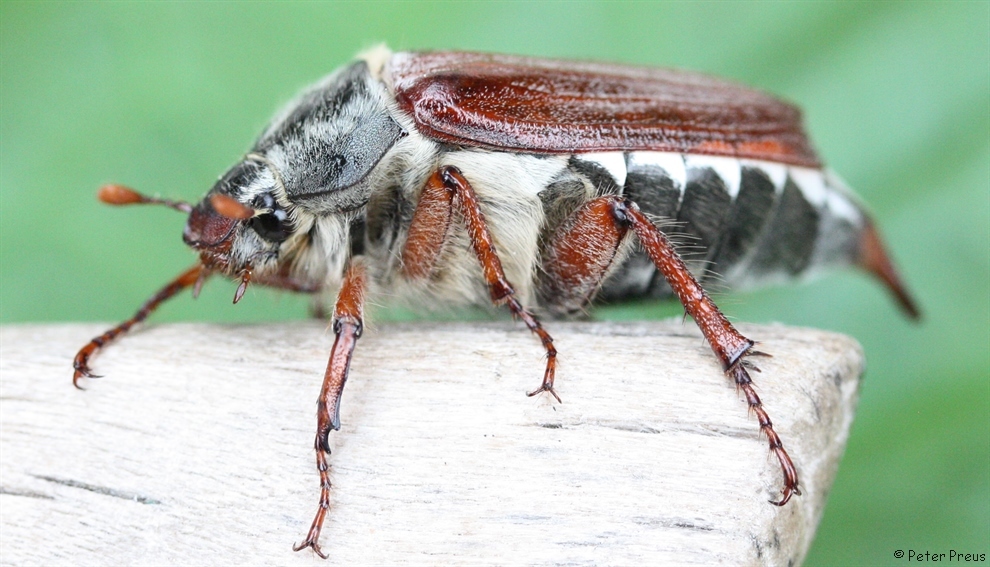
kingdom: Animalia
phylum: Arthropoda
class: Insecta
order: Coleoptera
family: Scarabaeidae
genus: Melolontha
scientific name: Melolontha melolontha
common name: Cockchafer maybeetle
